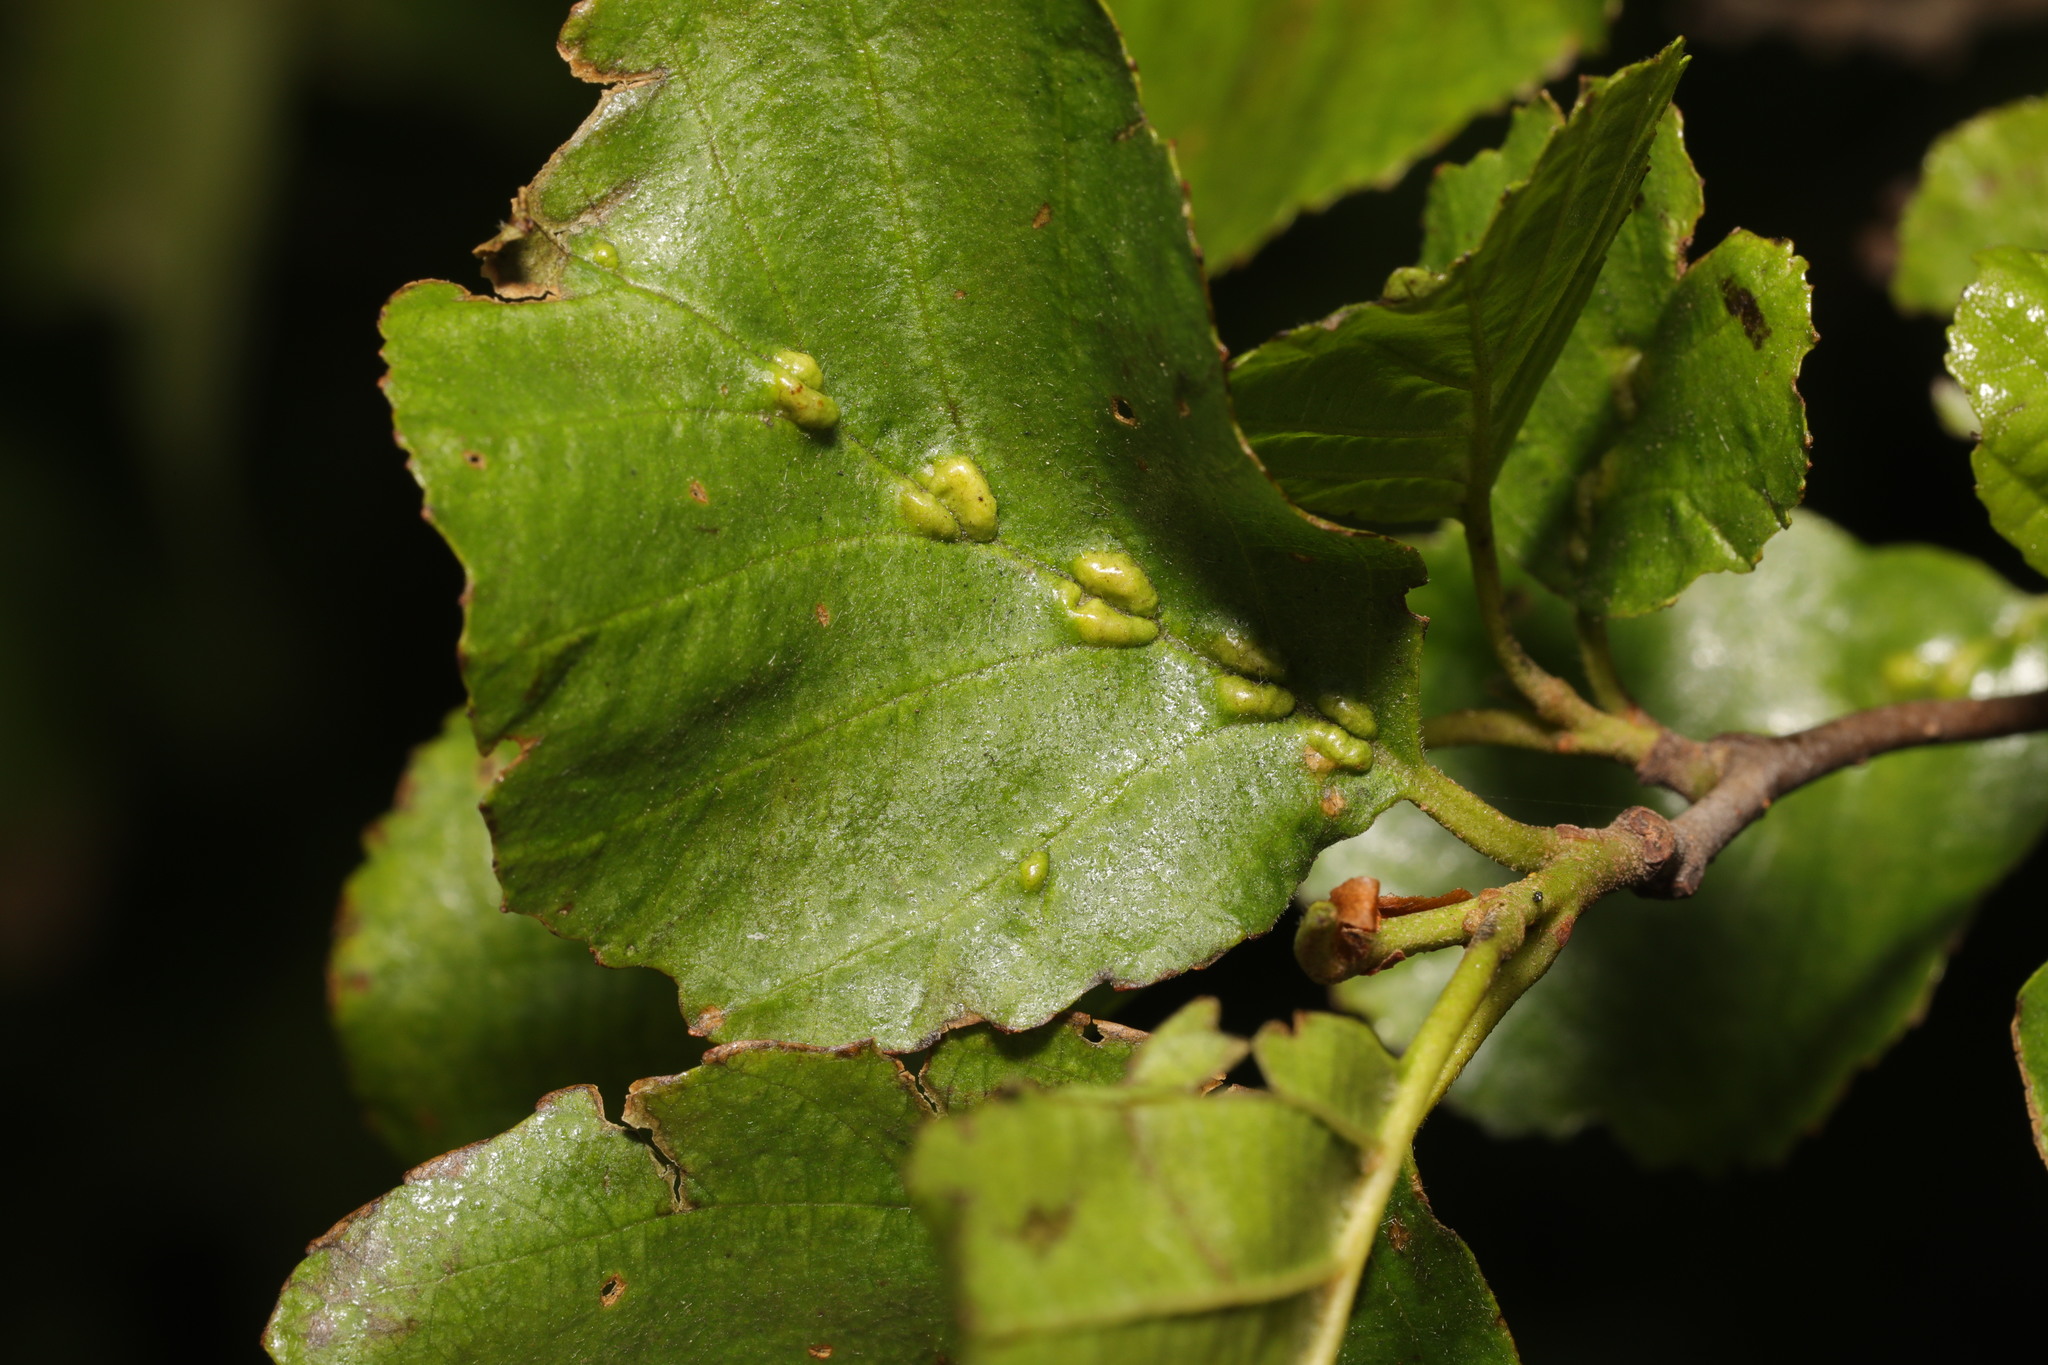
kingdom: Animalia
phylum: Arthropoda
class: Arachnida
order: Trombidiformes
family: Eriophyidae
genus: Eriophyes
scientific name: Eriophyes inangulis
